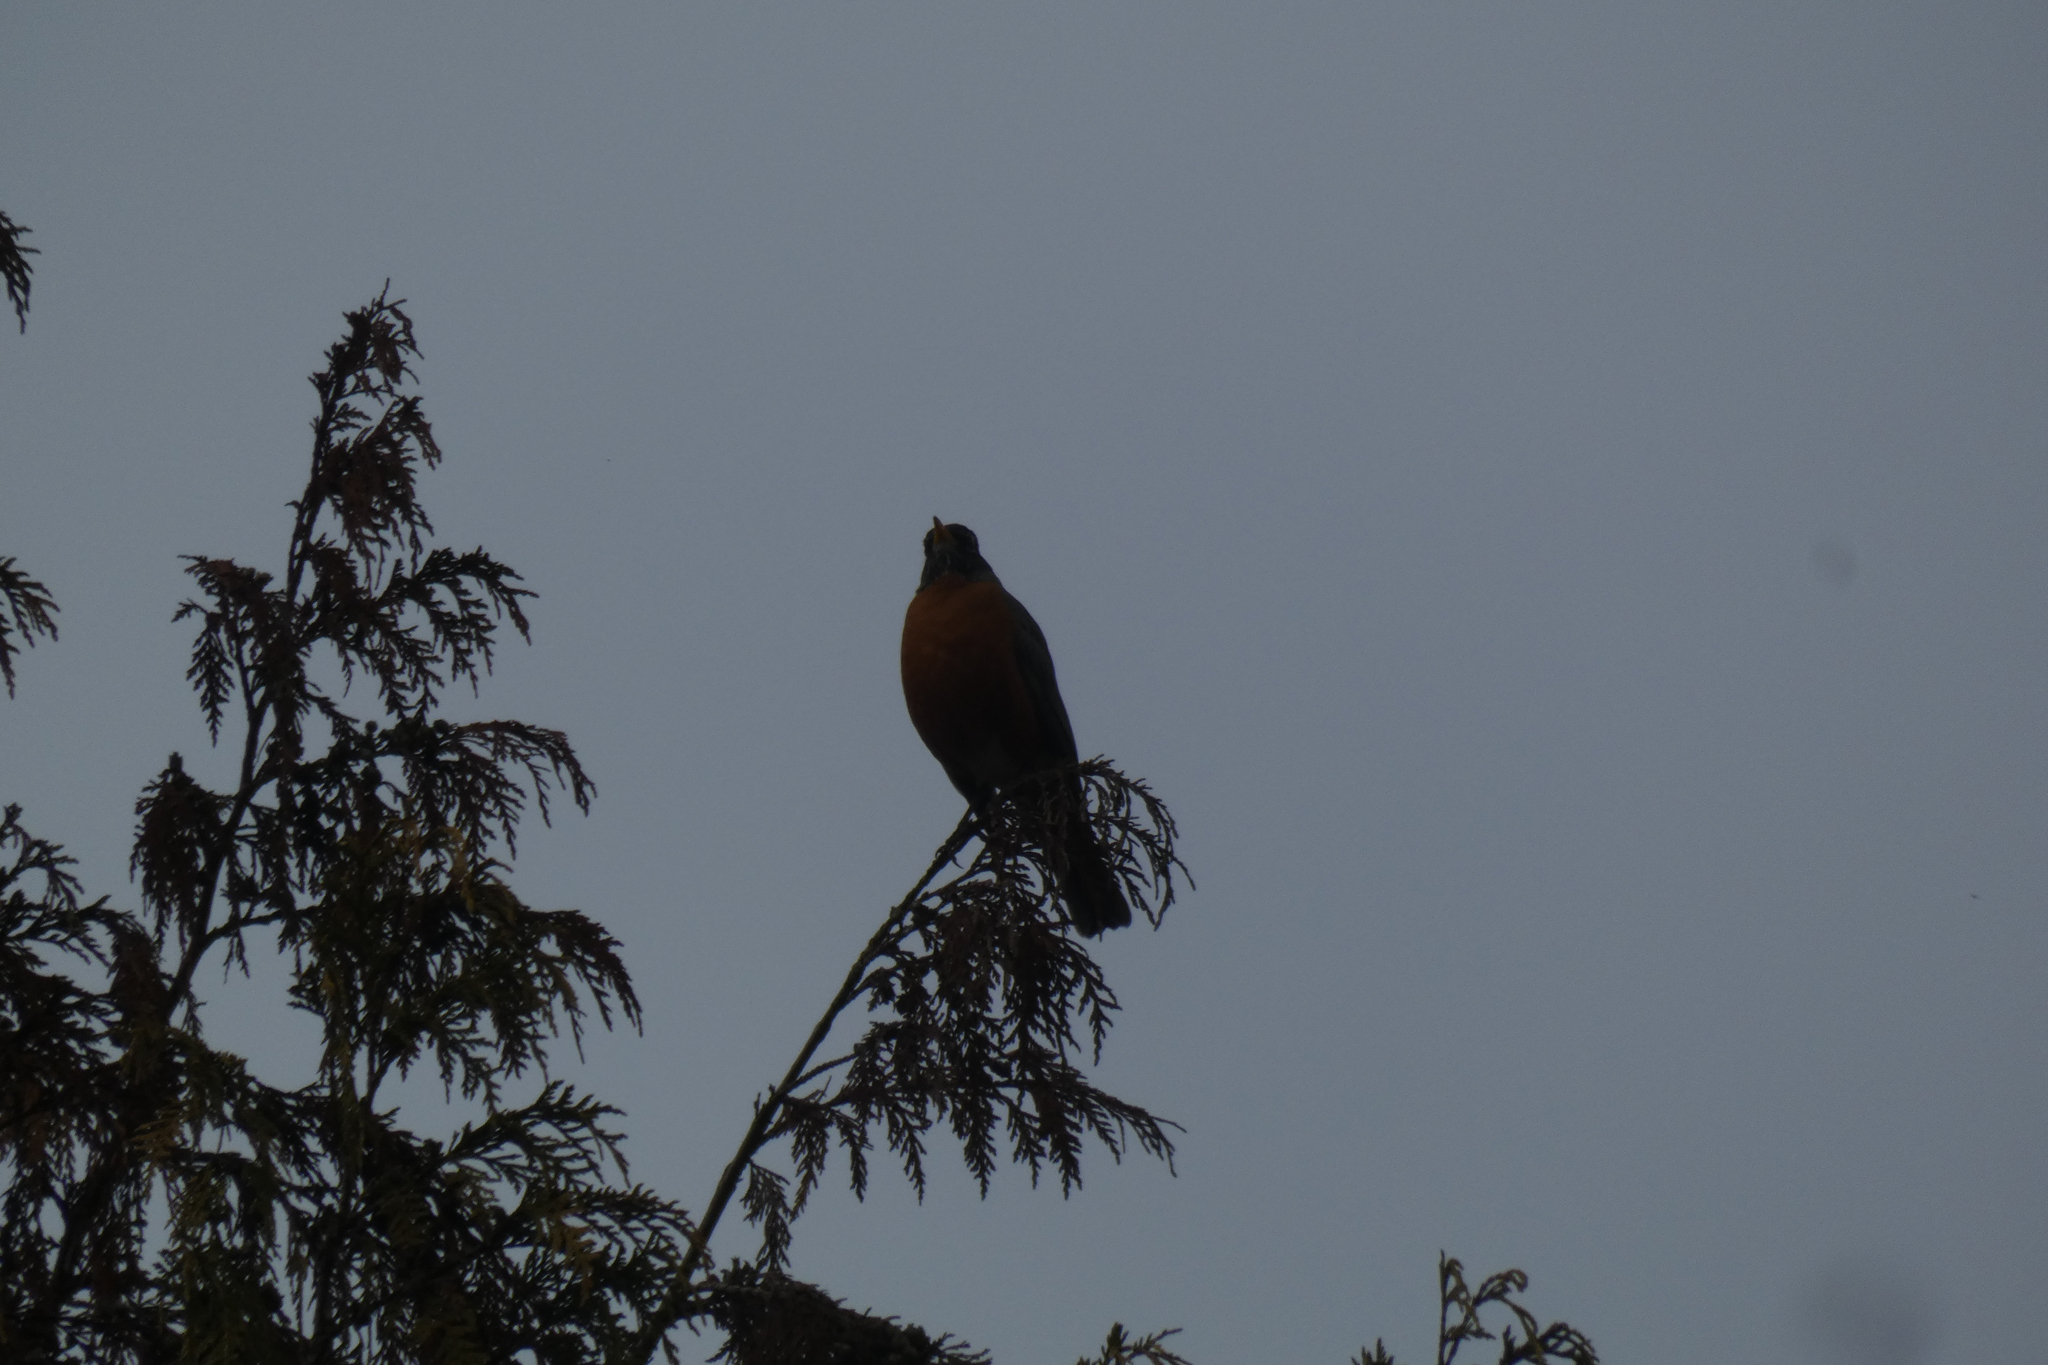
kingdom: Animalia
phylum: Chordata
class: Aves
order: Passeriformes
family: Turdidae
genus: Turdus
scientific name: Turdus migratorius
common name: American robin
